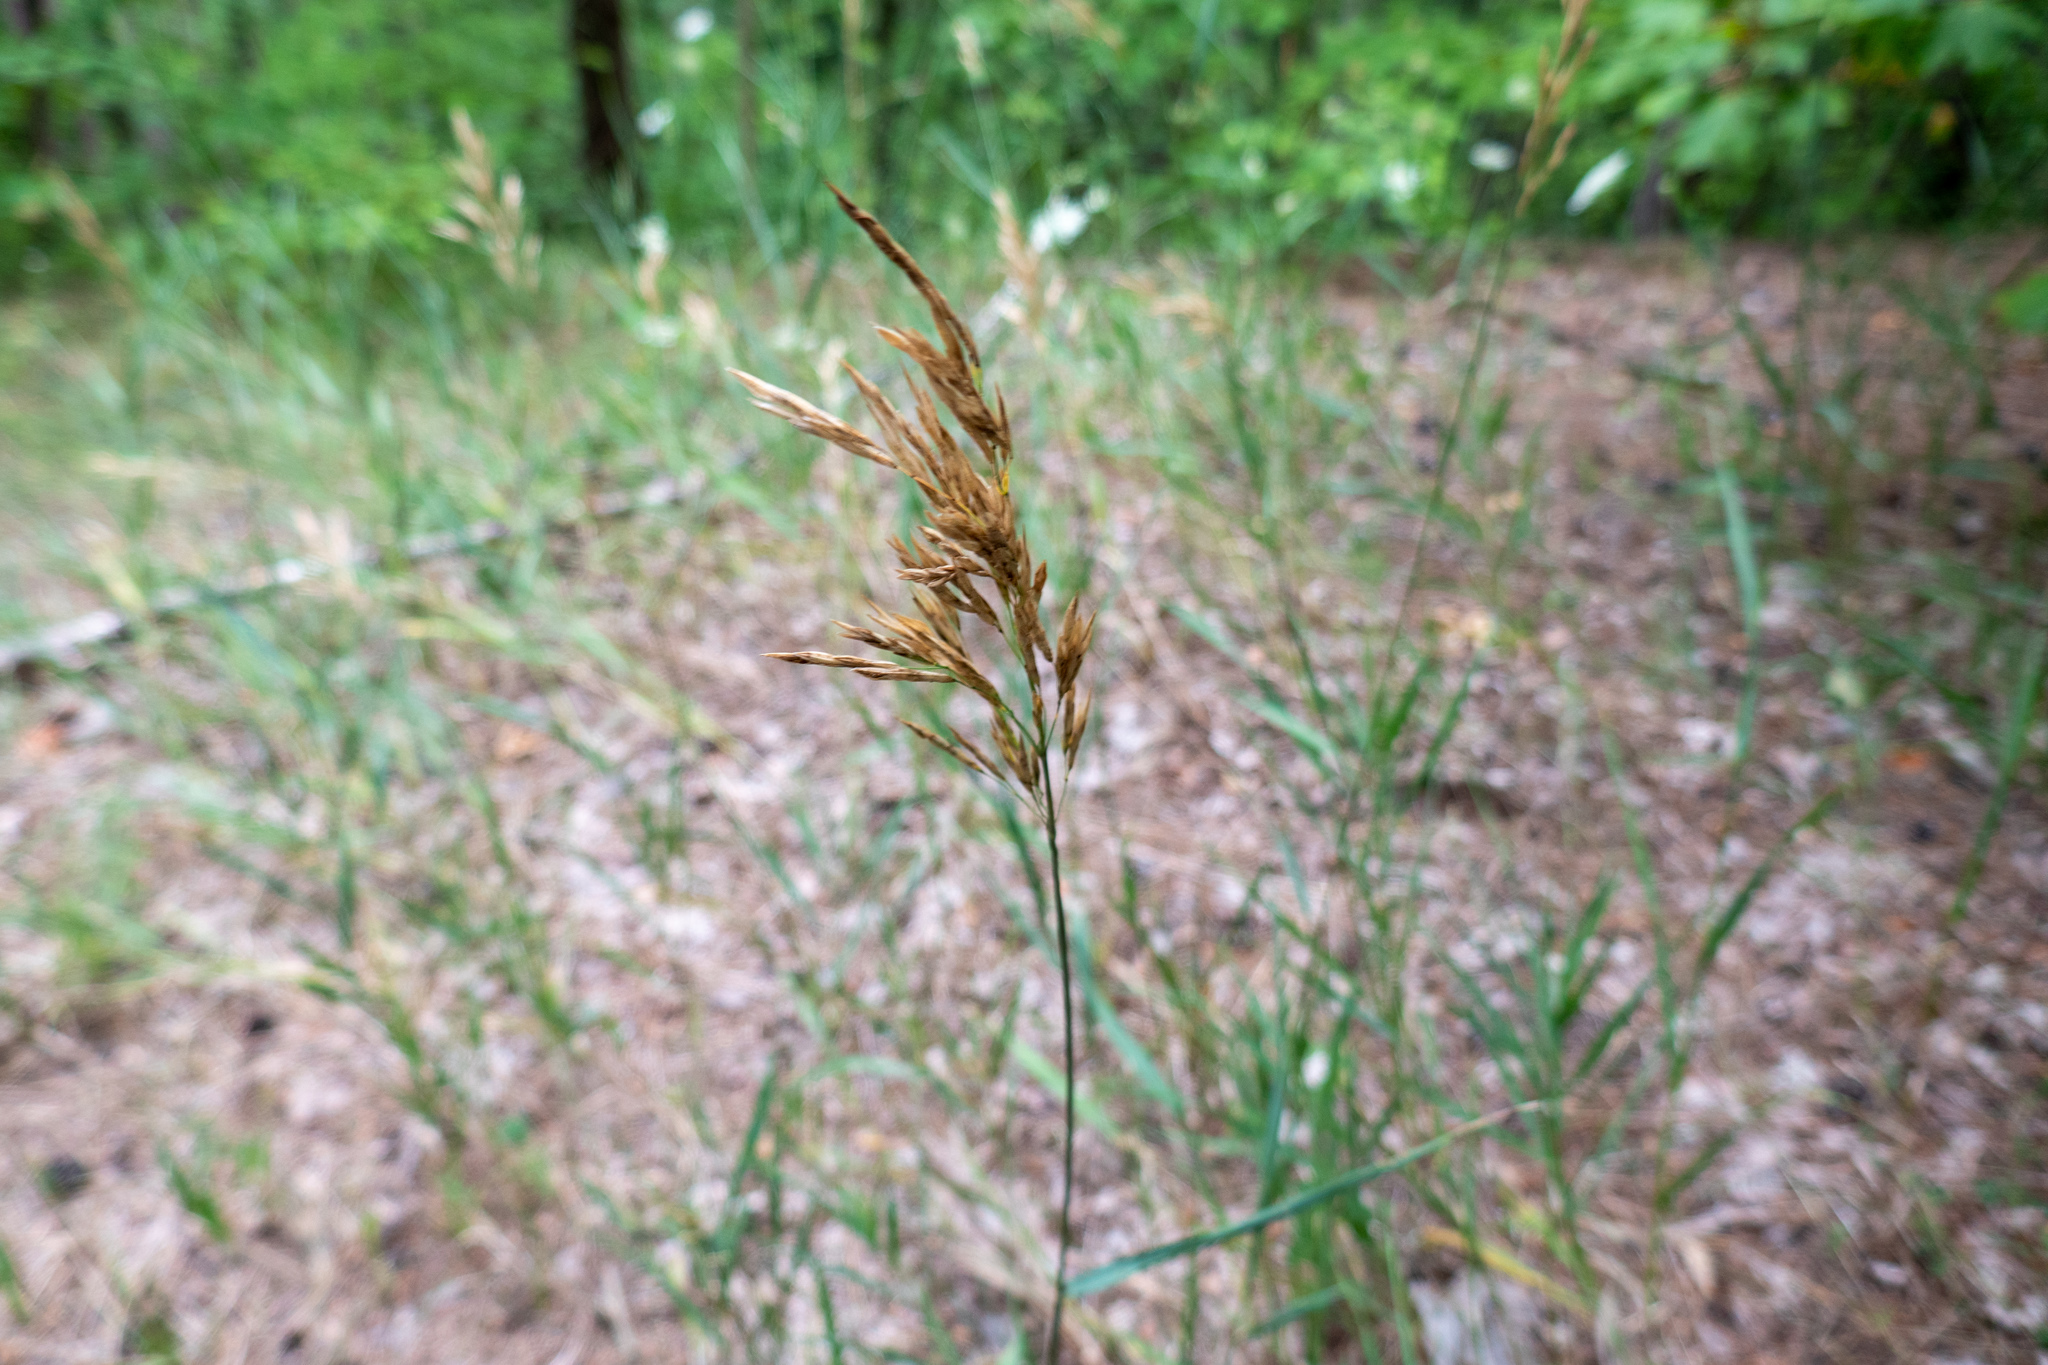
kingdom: Plantae
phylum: Tracheophyta
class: Liliopsida
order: Poales
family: Poaceae
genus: Bromus
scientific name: Bromus inermis
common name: Smooth brome
